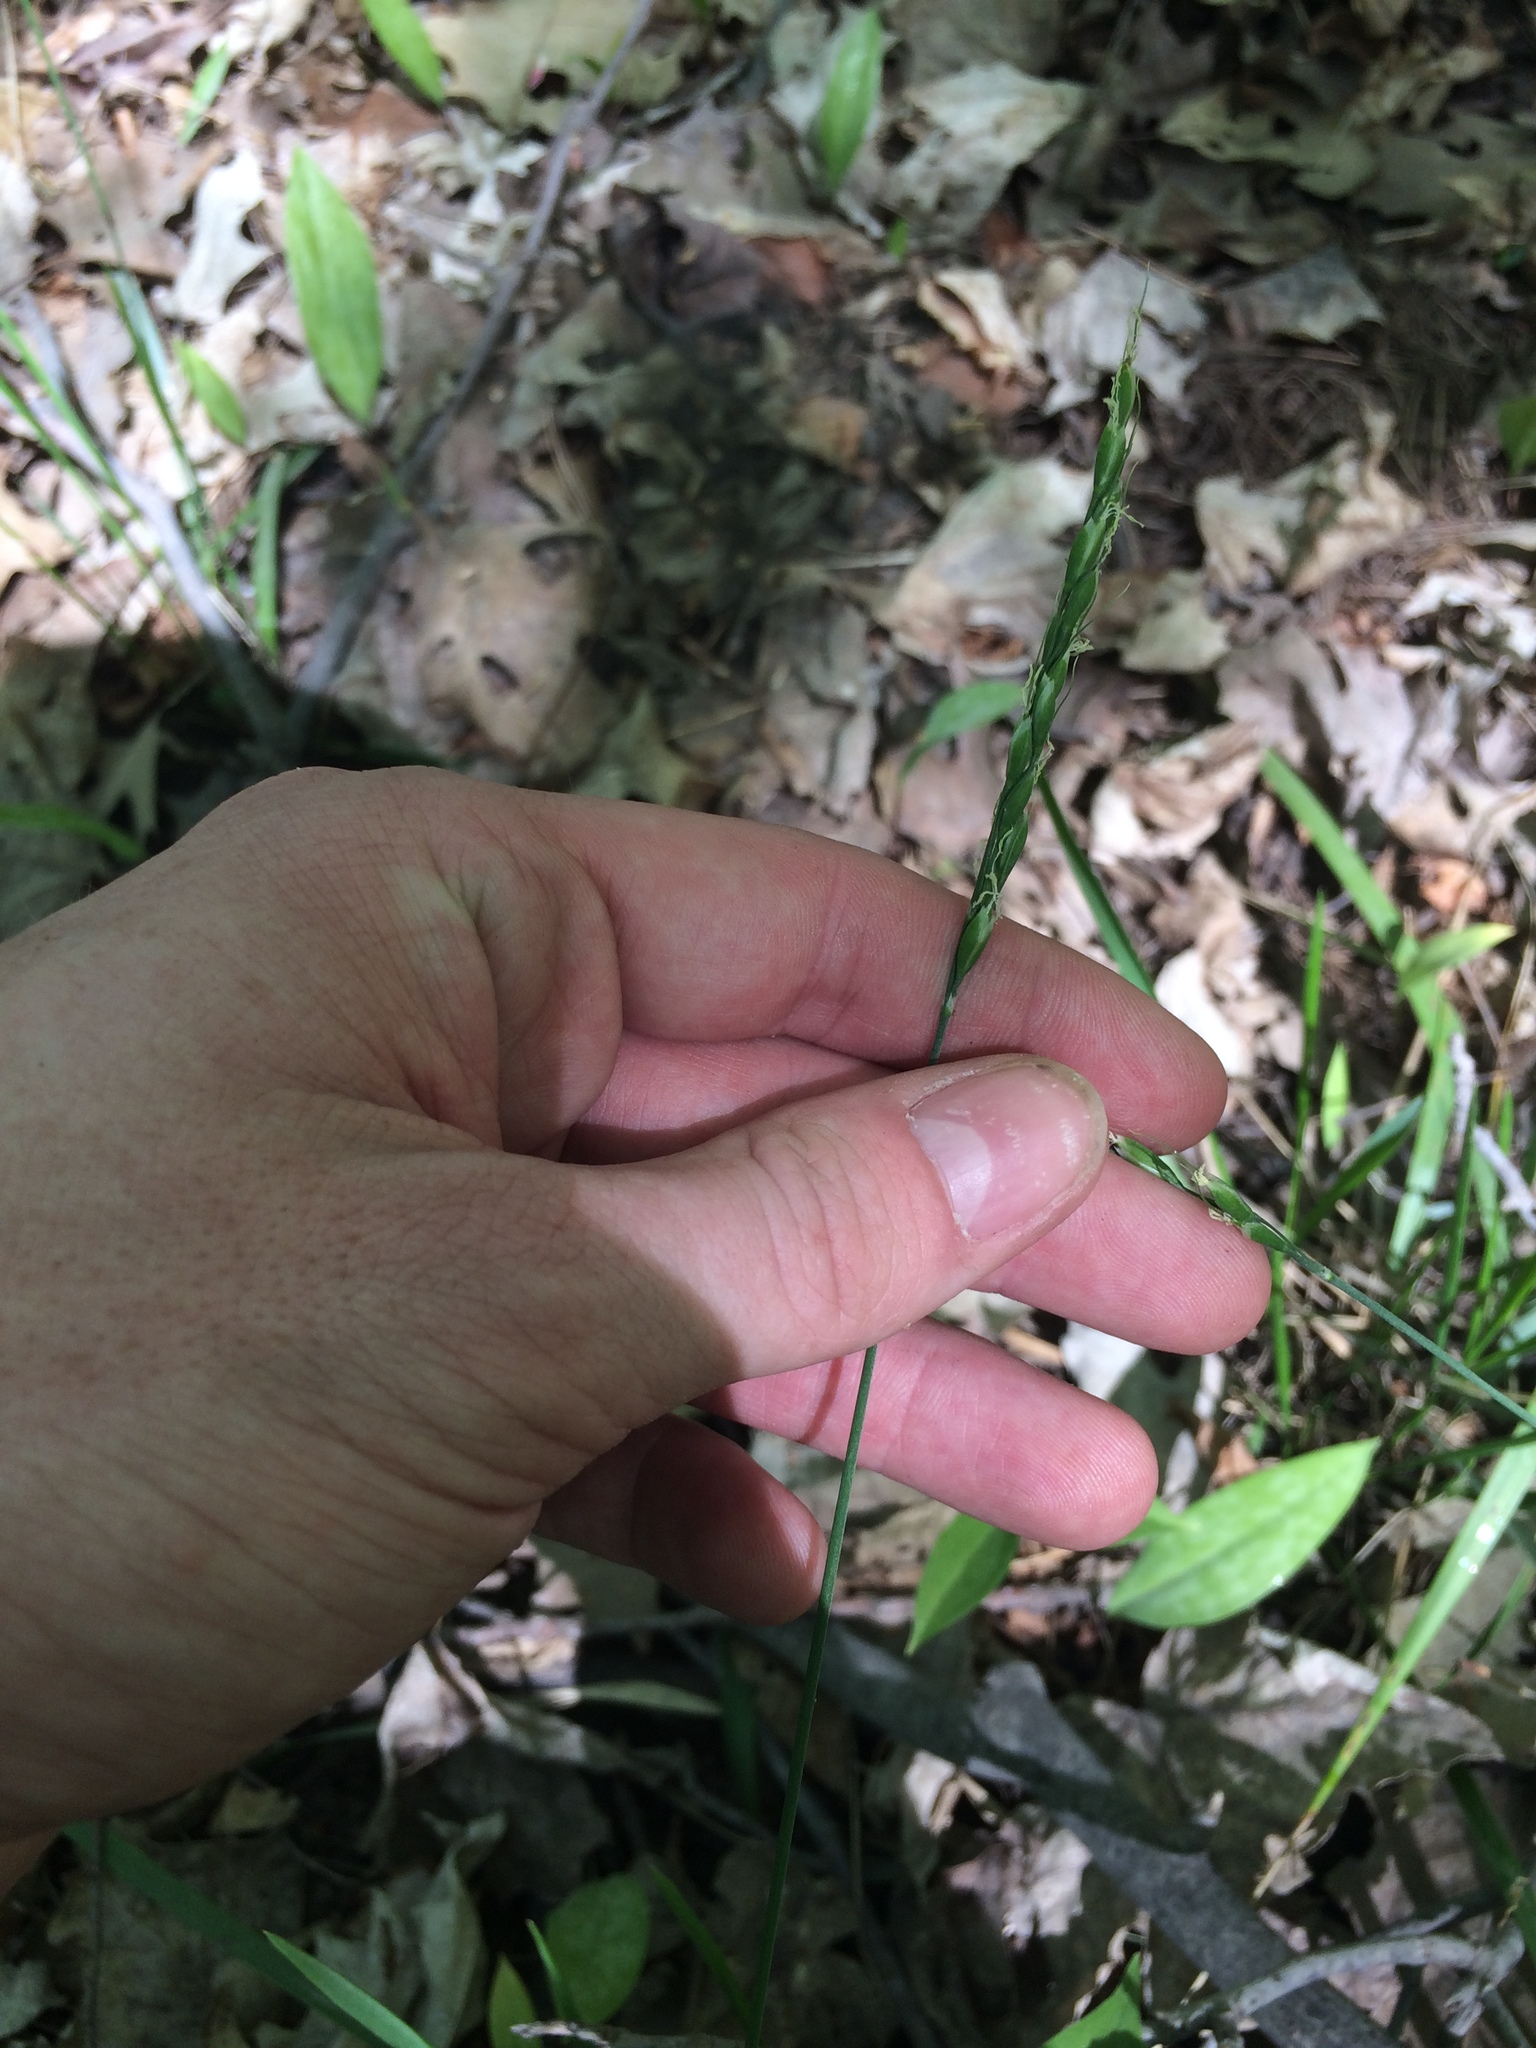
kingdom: Plantae
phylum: Tracheophyta
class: Liliopsida
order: Poales
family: Poaceae
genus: Oryzopsis
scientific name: Oryzopsis asperifolia
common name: Rough-leaved mountain rice
